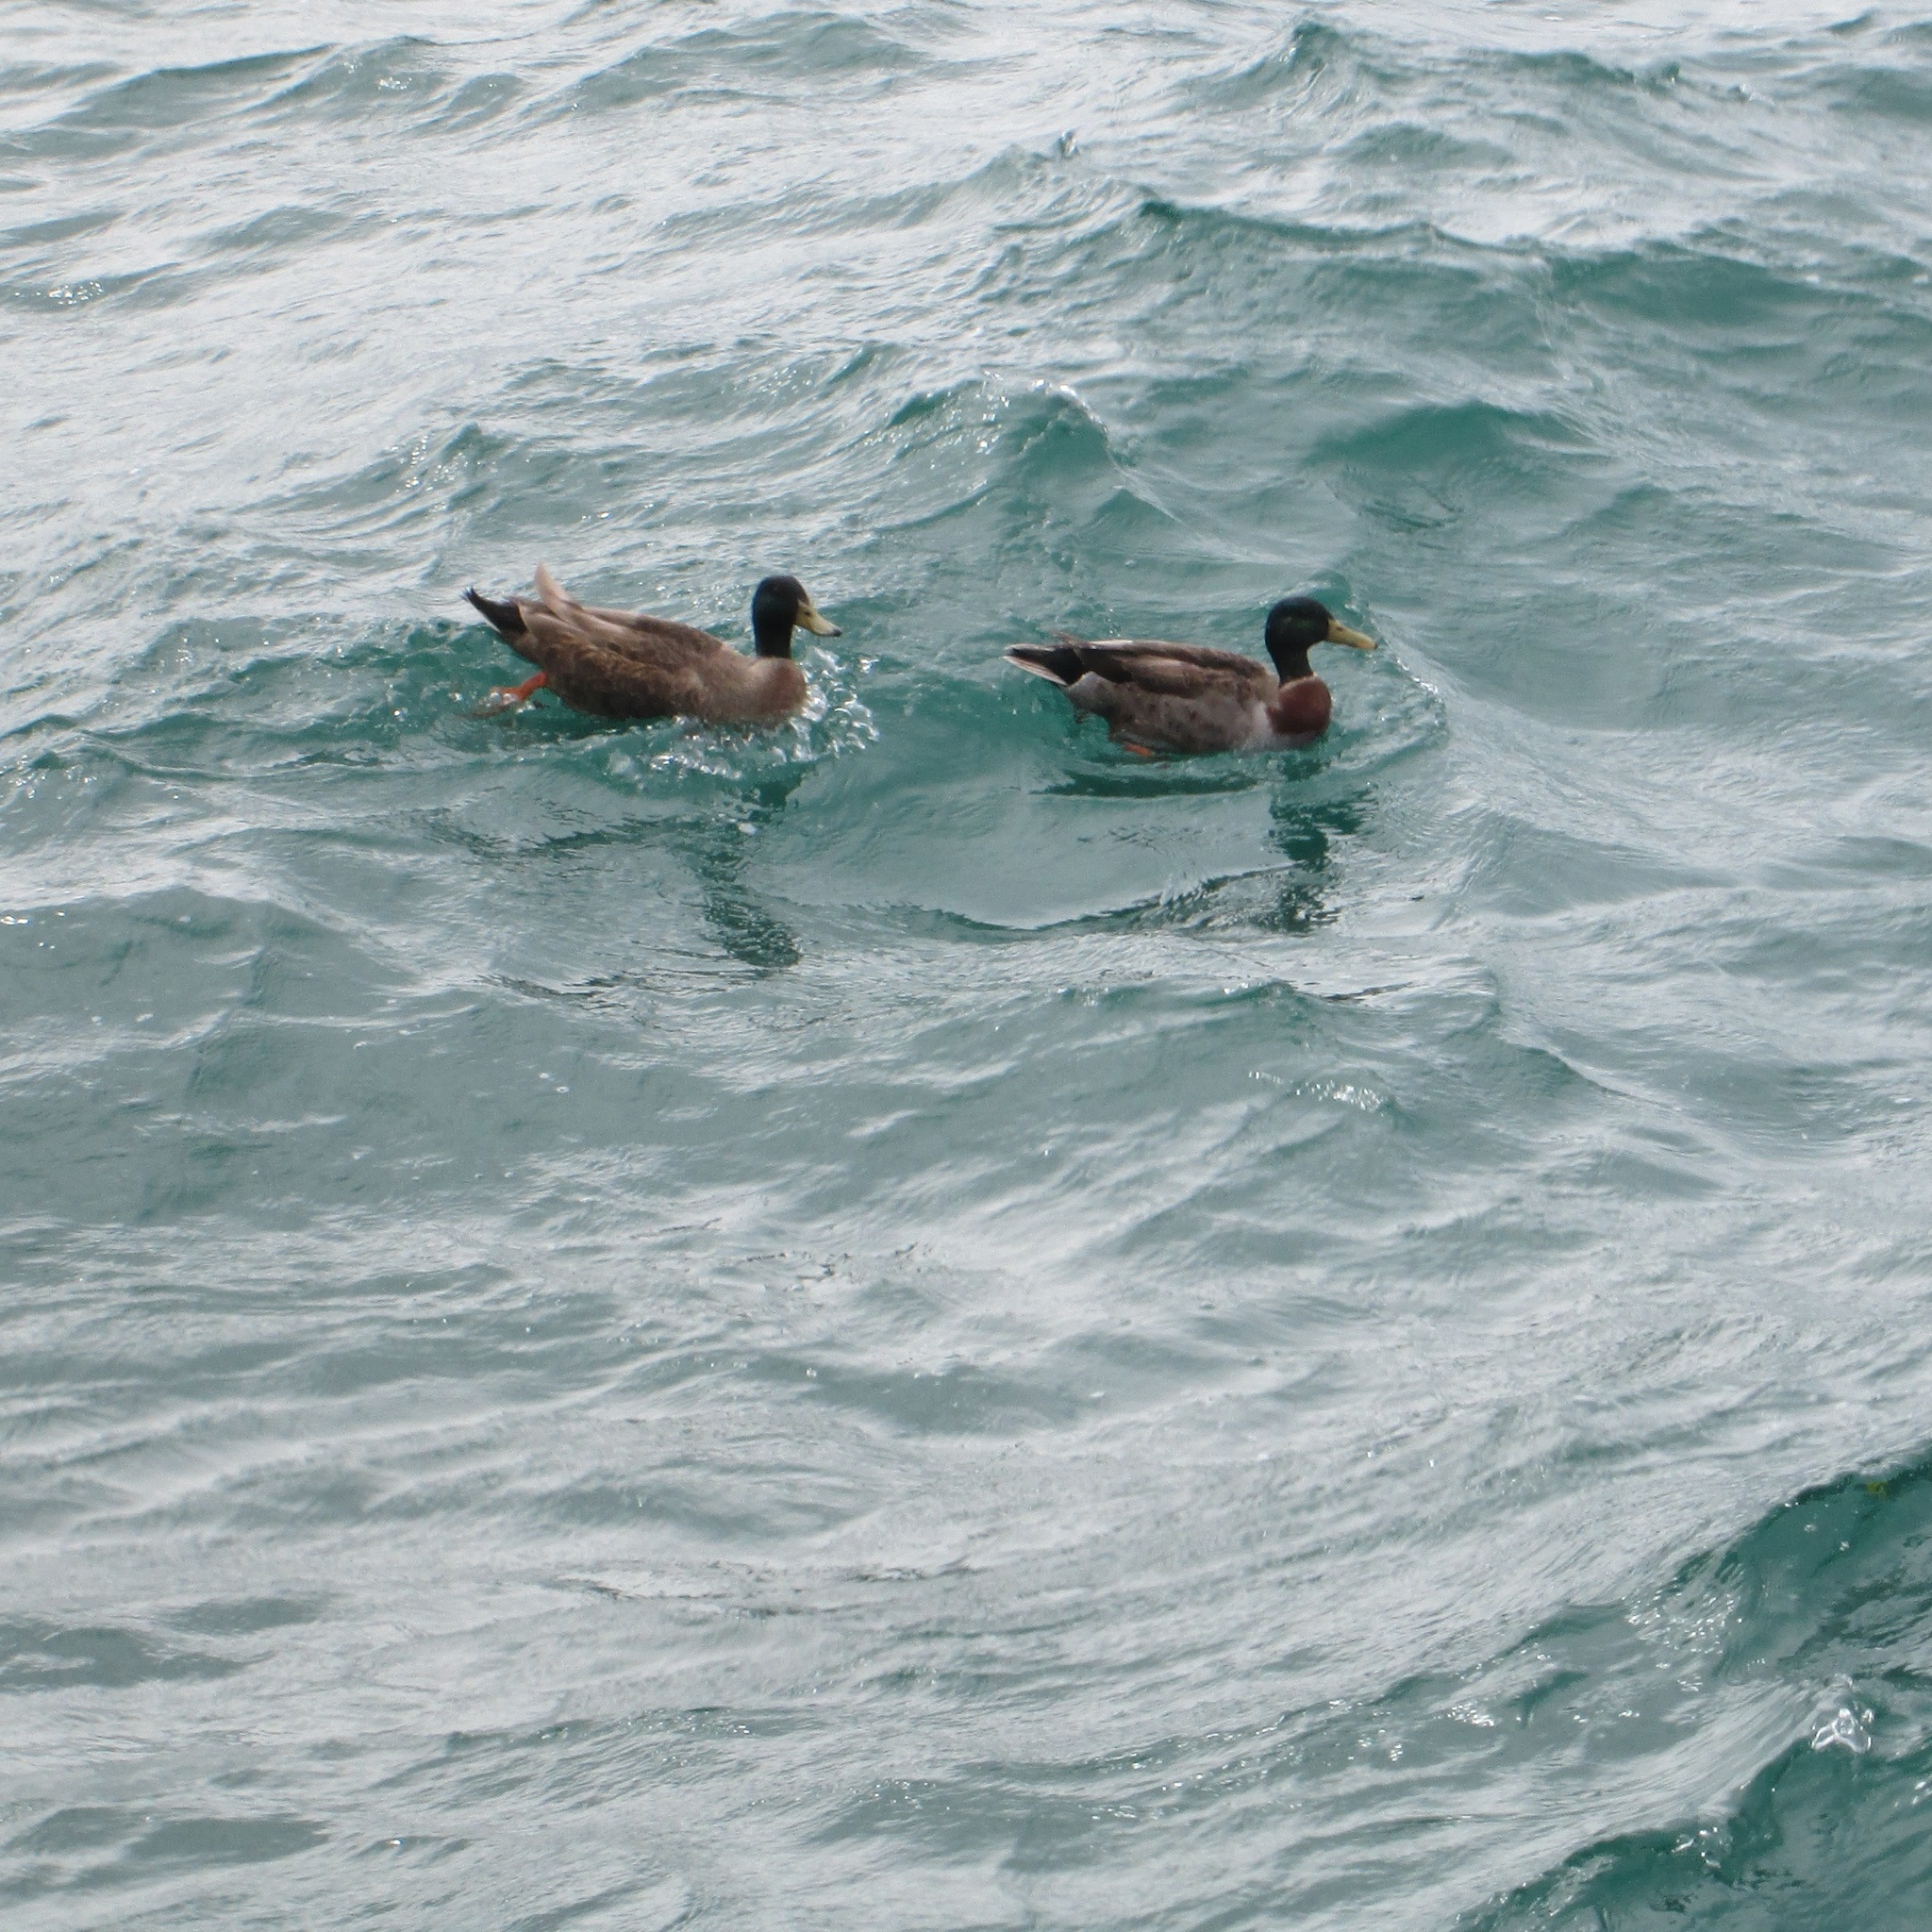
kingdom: Animalia
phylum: Chordata
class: Aves
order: Anseriformes
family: Anatidae
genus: Anas
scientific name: Anas platyrhynchos
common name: Mallard
